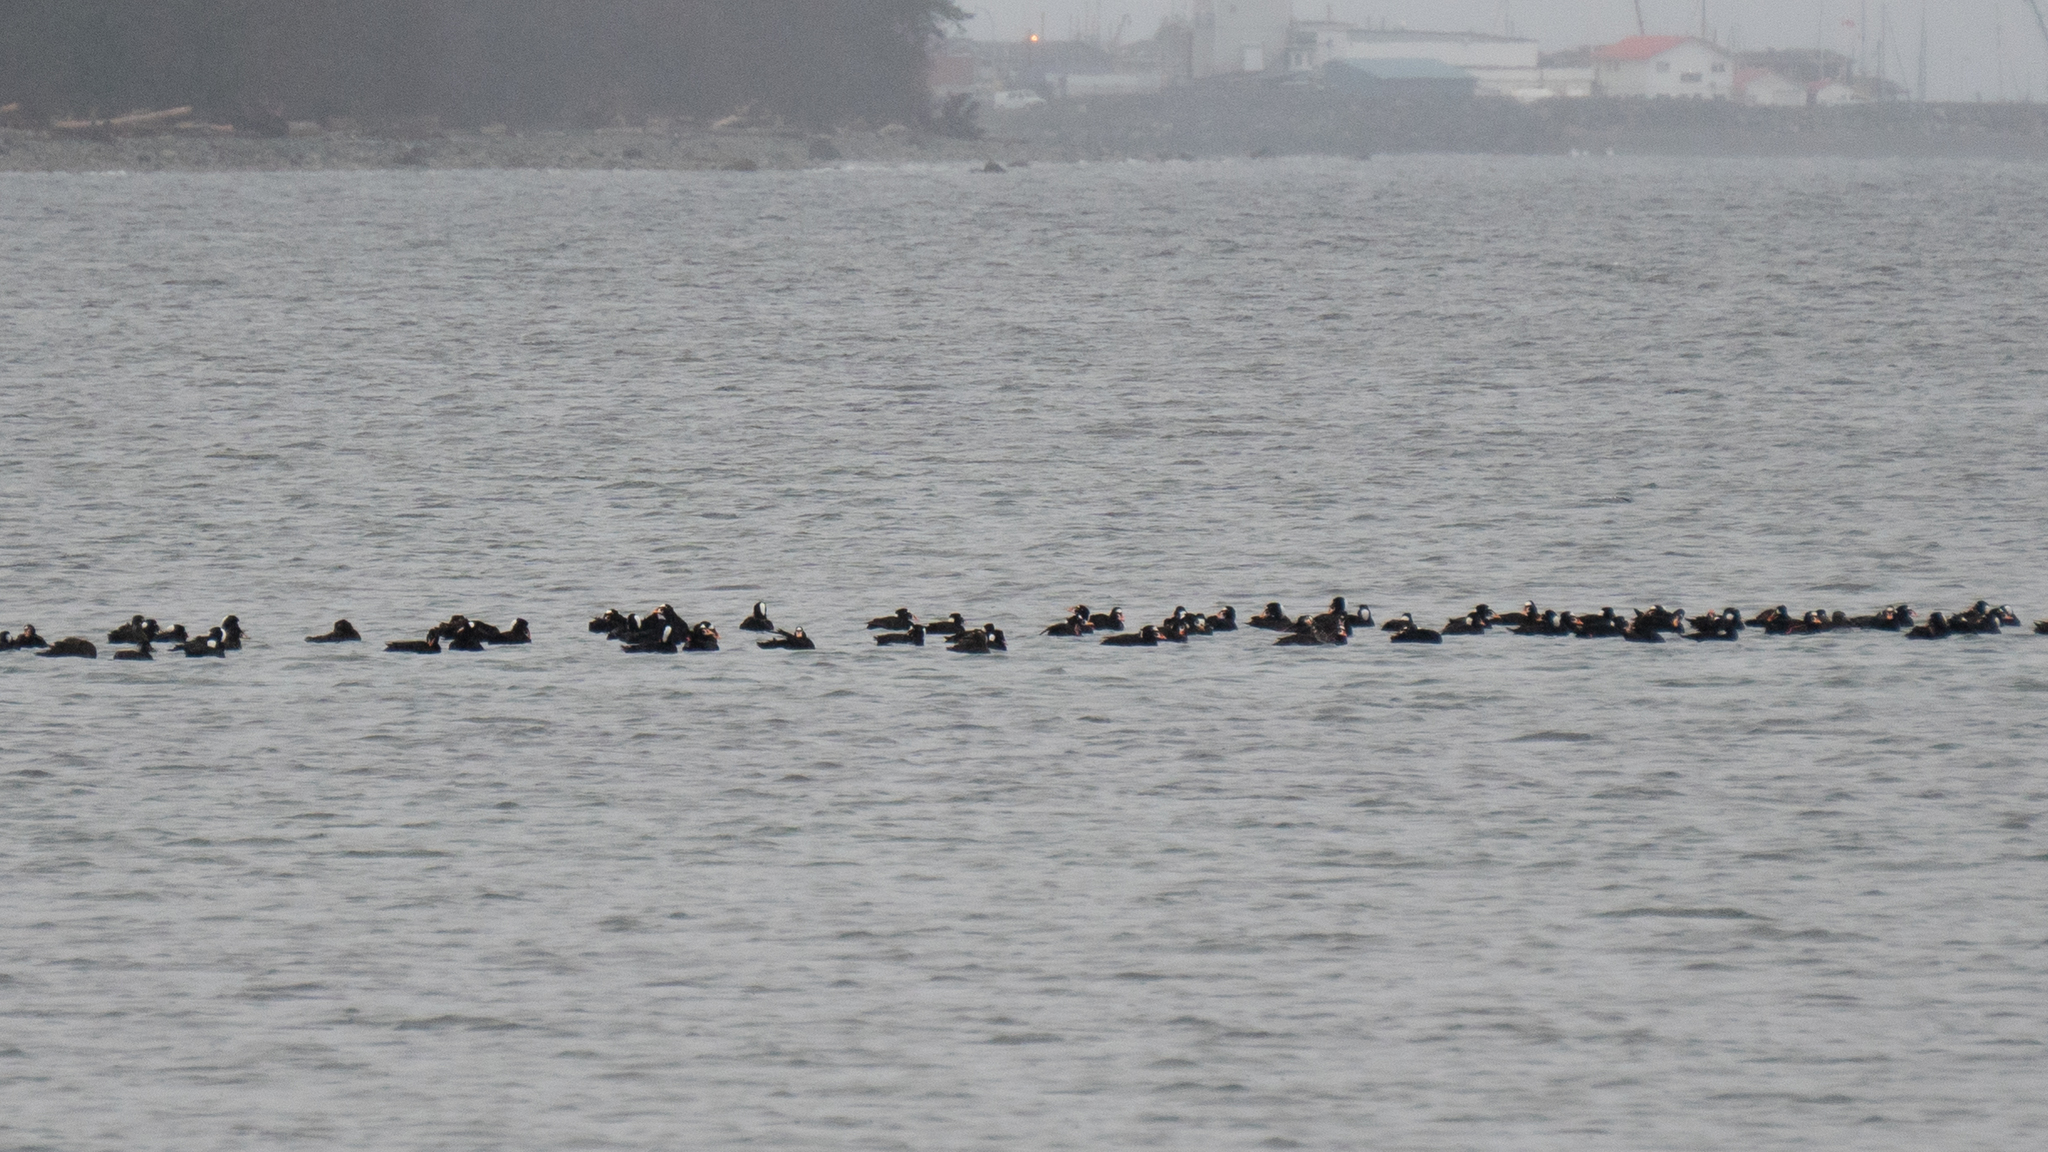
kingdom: Animalia
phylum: Chordata
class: Aves
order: Anseriformes
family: Anatidae
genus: Melanitta
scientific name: Melanitta perspicillata
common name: Surf scoter
